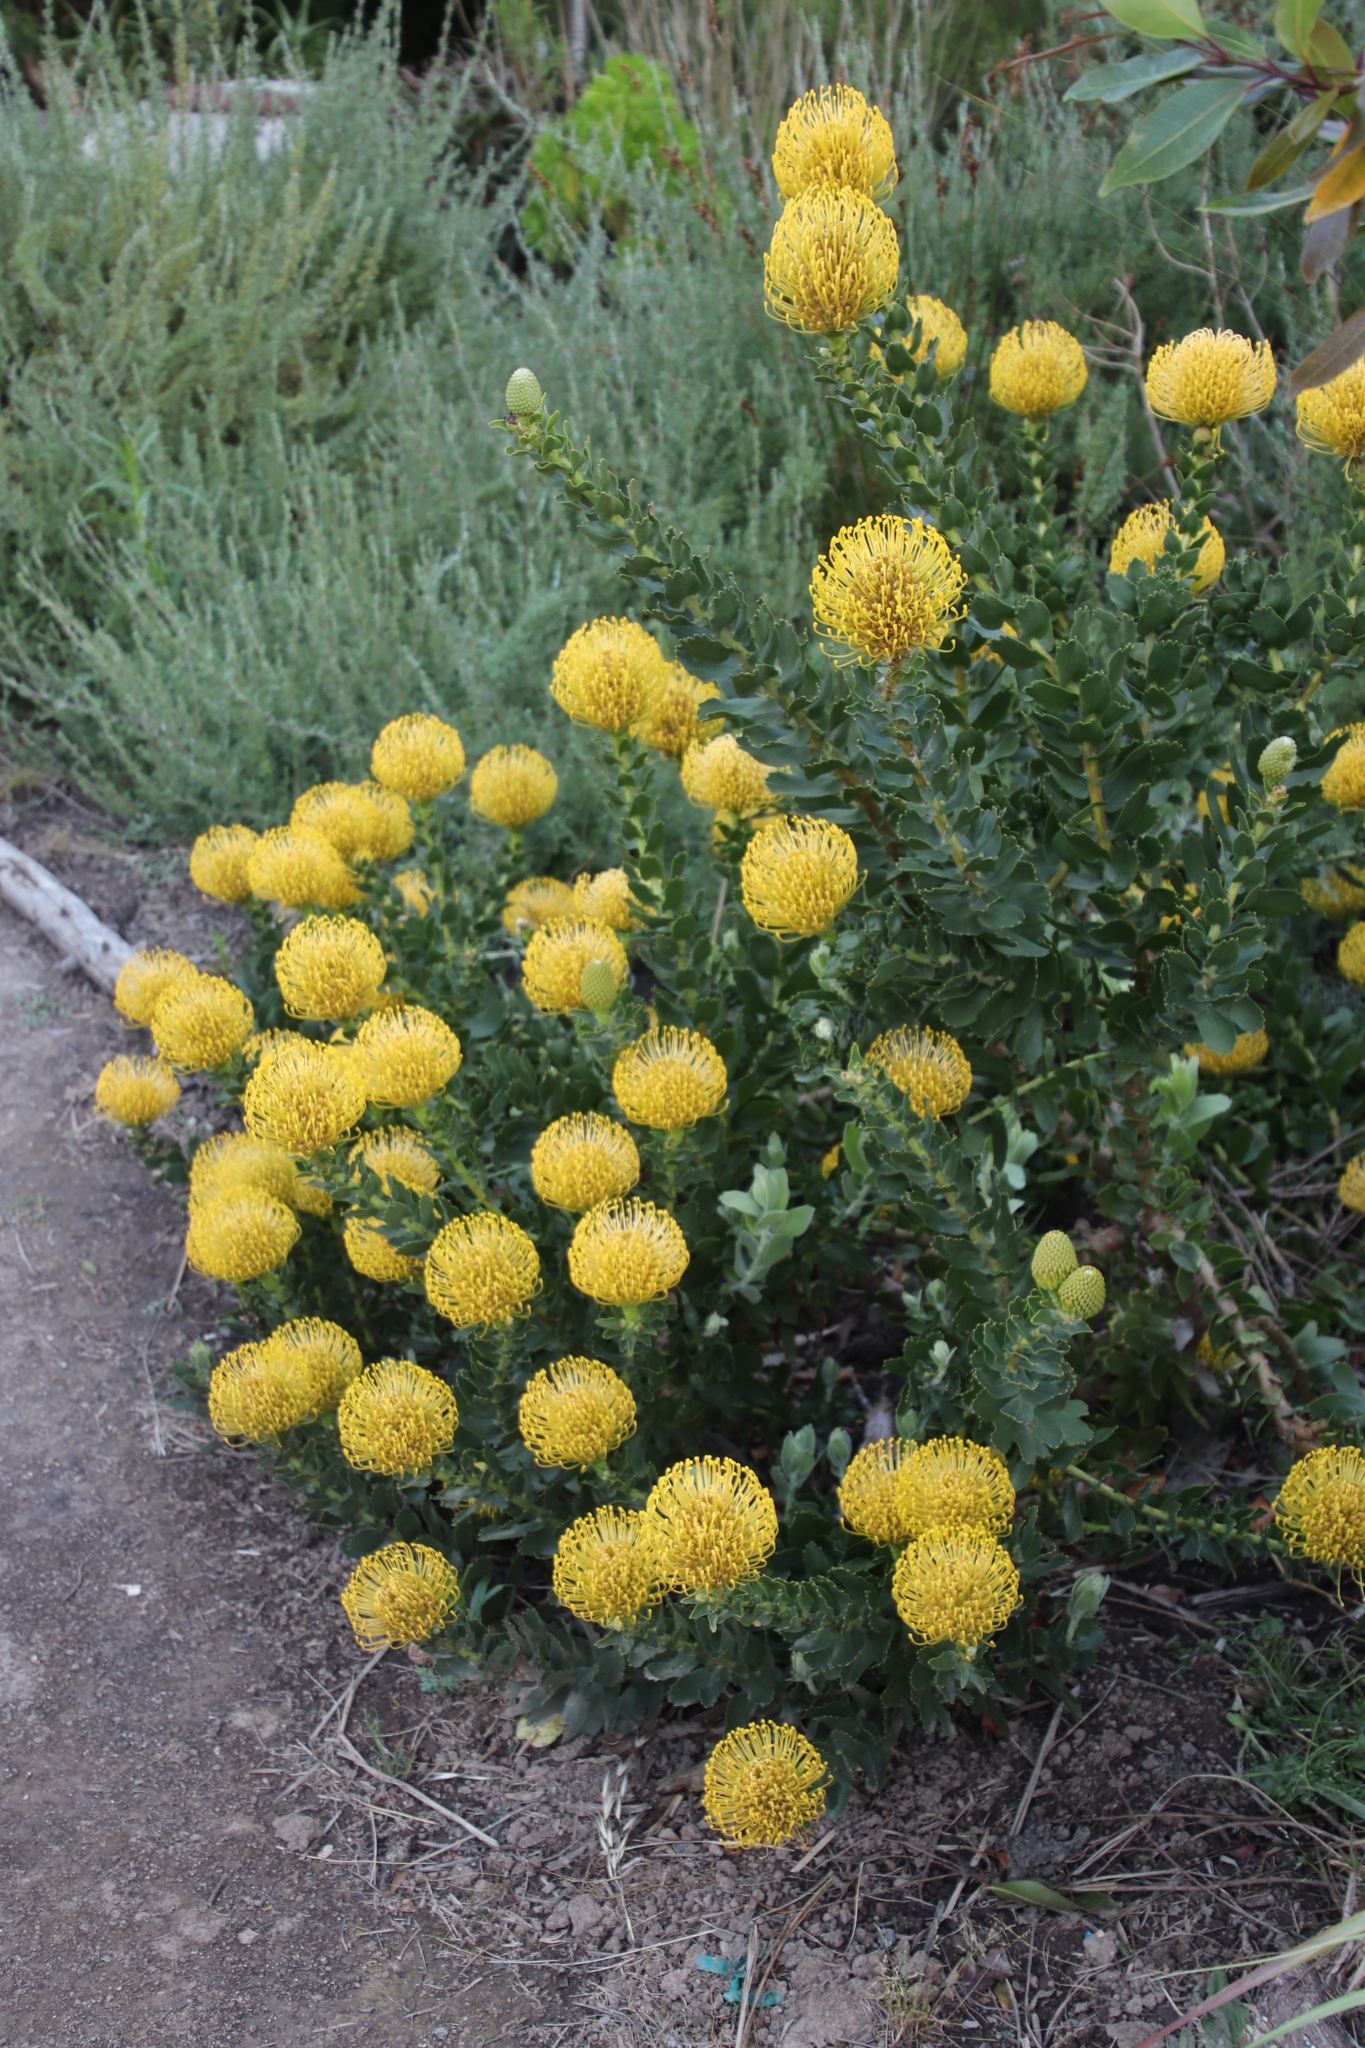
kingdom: Plantae
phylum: Tracheophyta
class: Magnoliopsida
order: Proteales
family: Proteaceae
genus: Leucospermum
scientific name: Leucospermum
